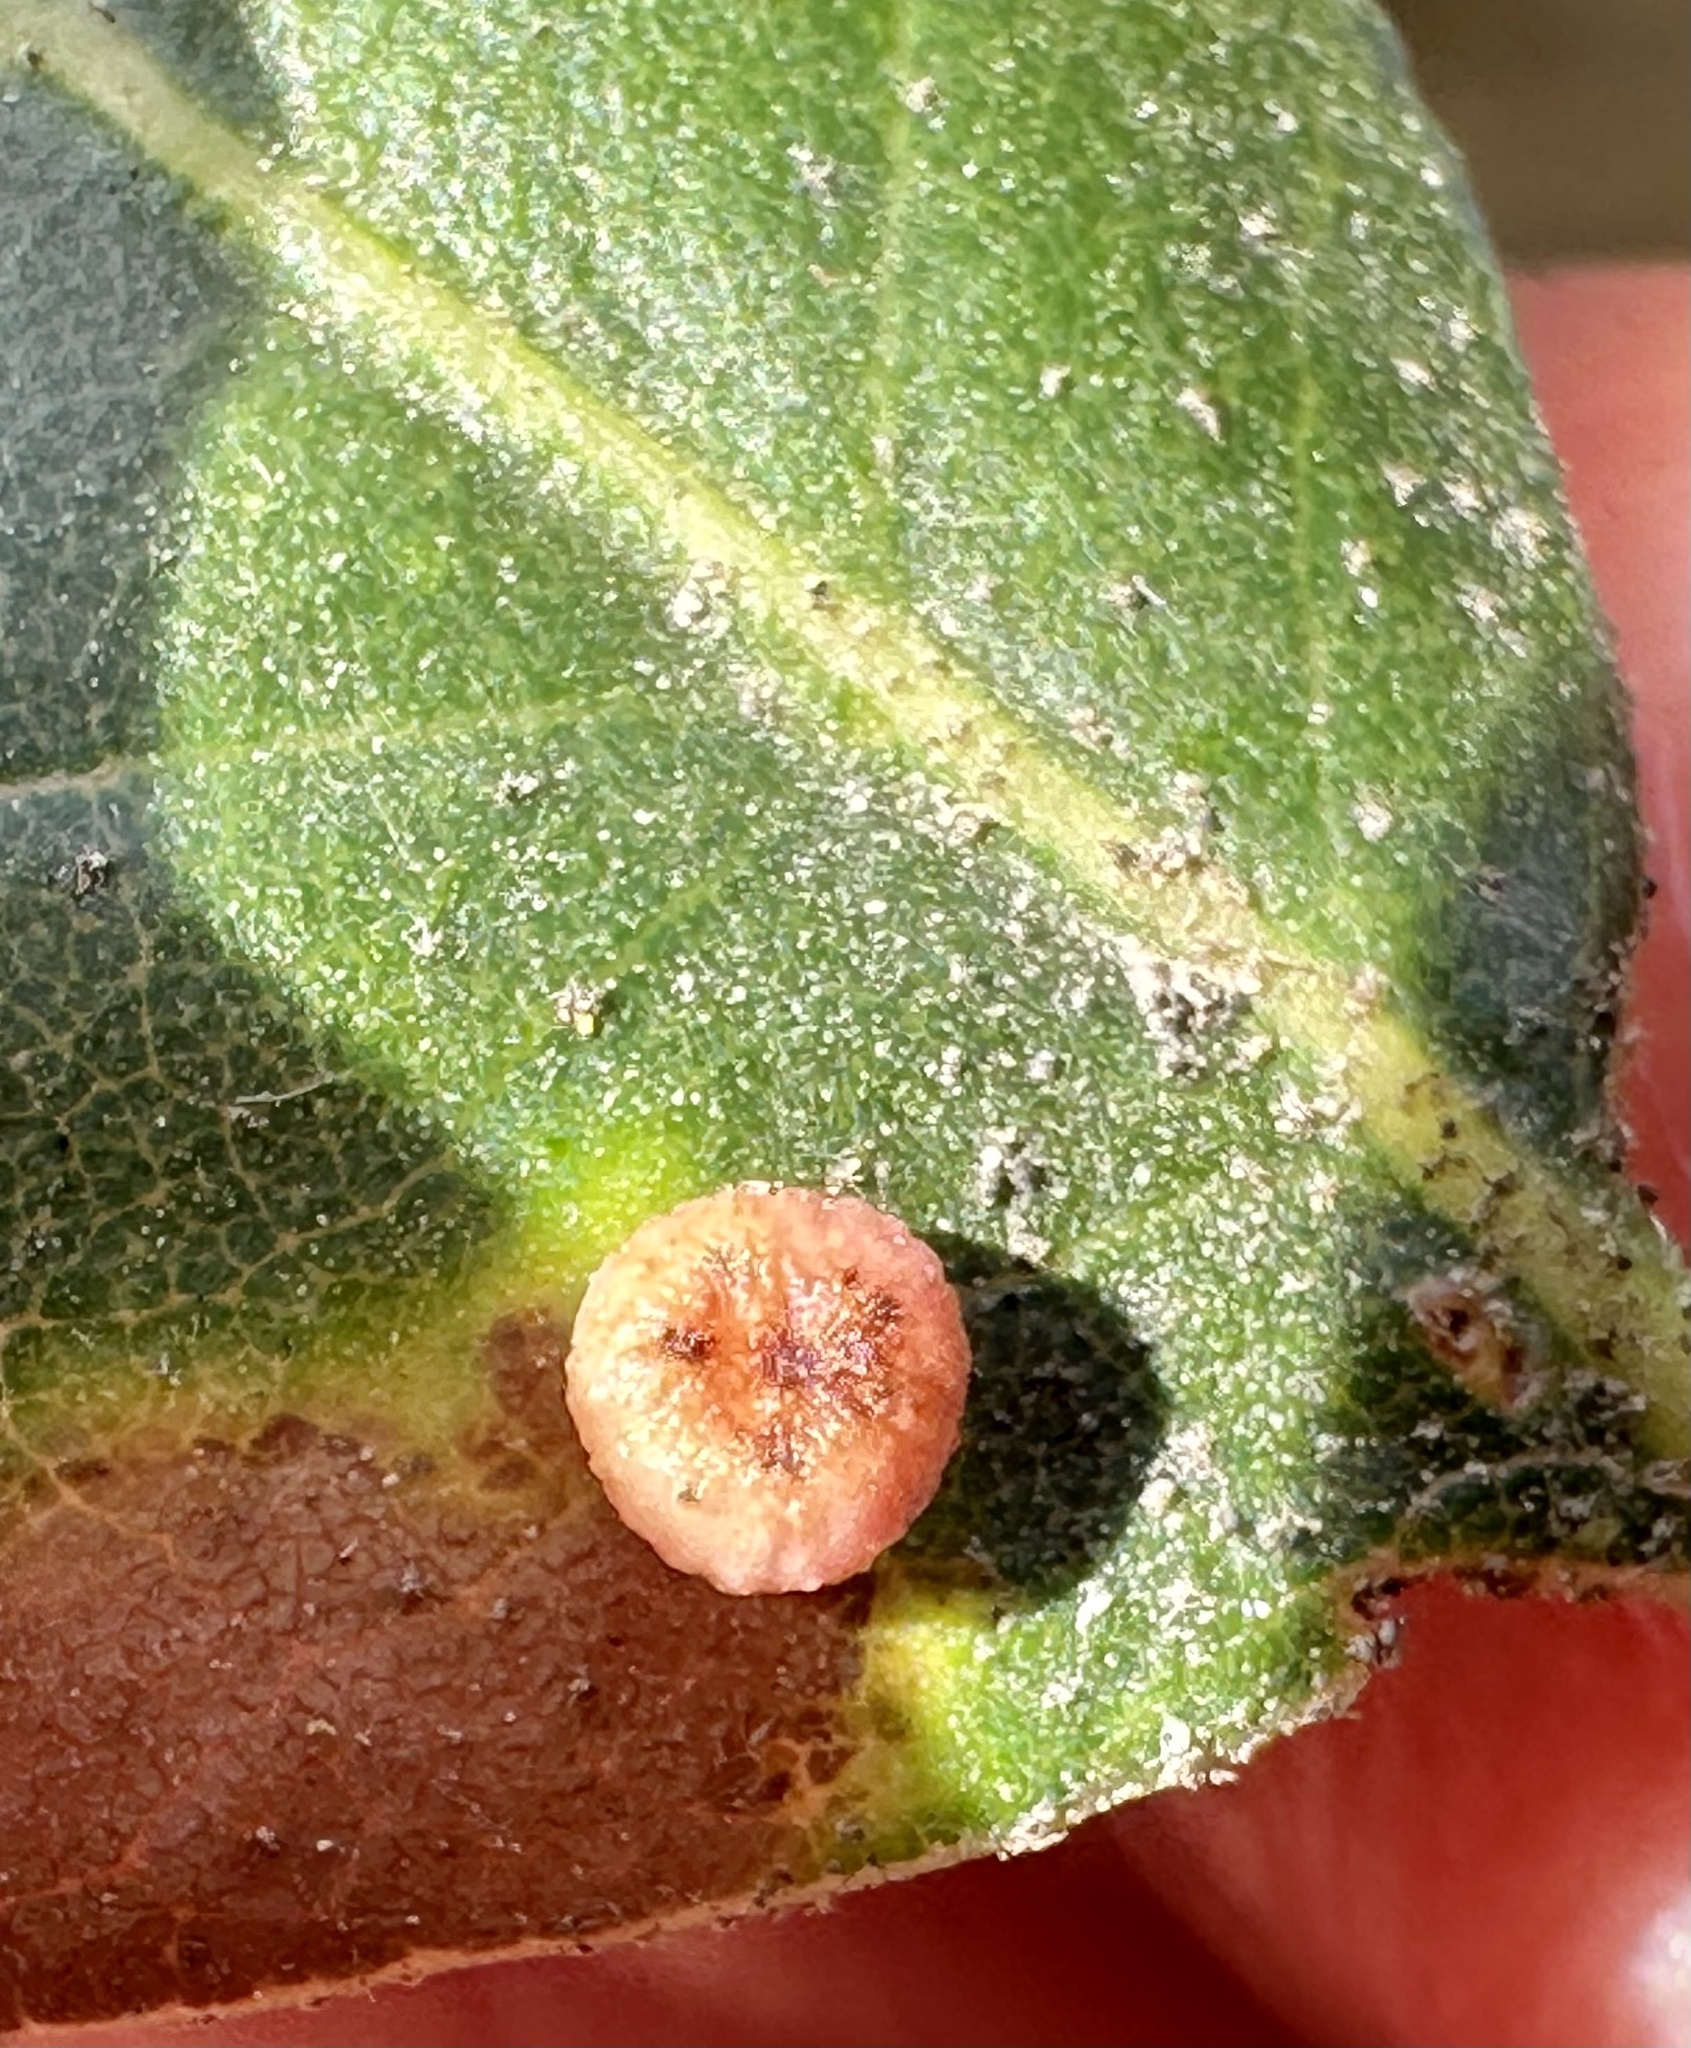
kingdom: Animalia
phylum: Arthropoda
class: Insecta
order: Hymenoptera
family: Cynipidae
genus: Dryocosmus
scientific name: Dryocosmus
